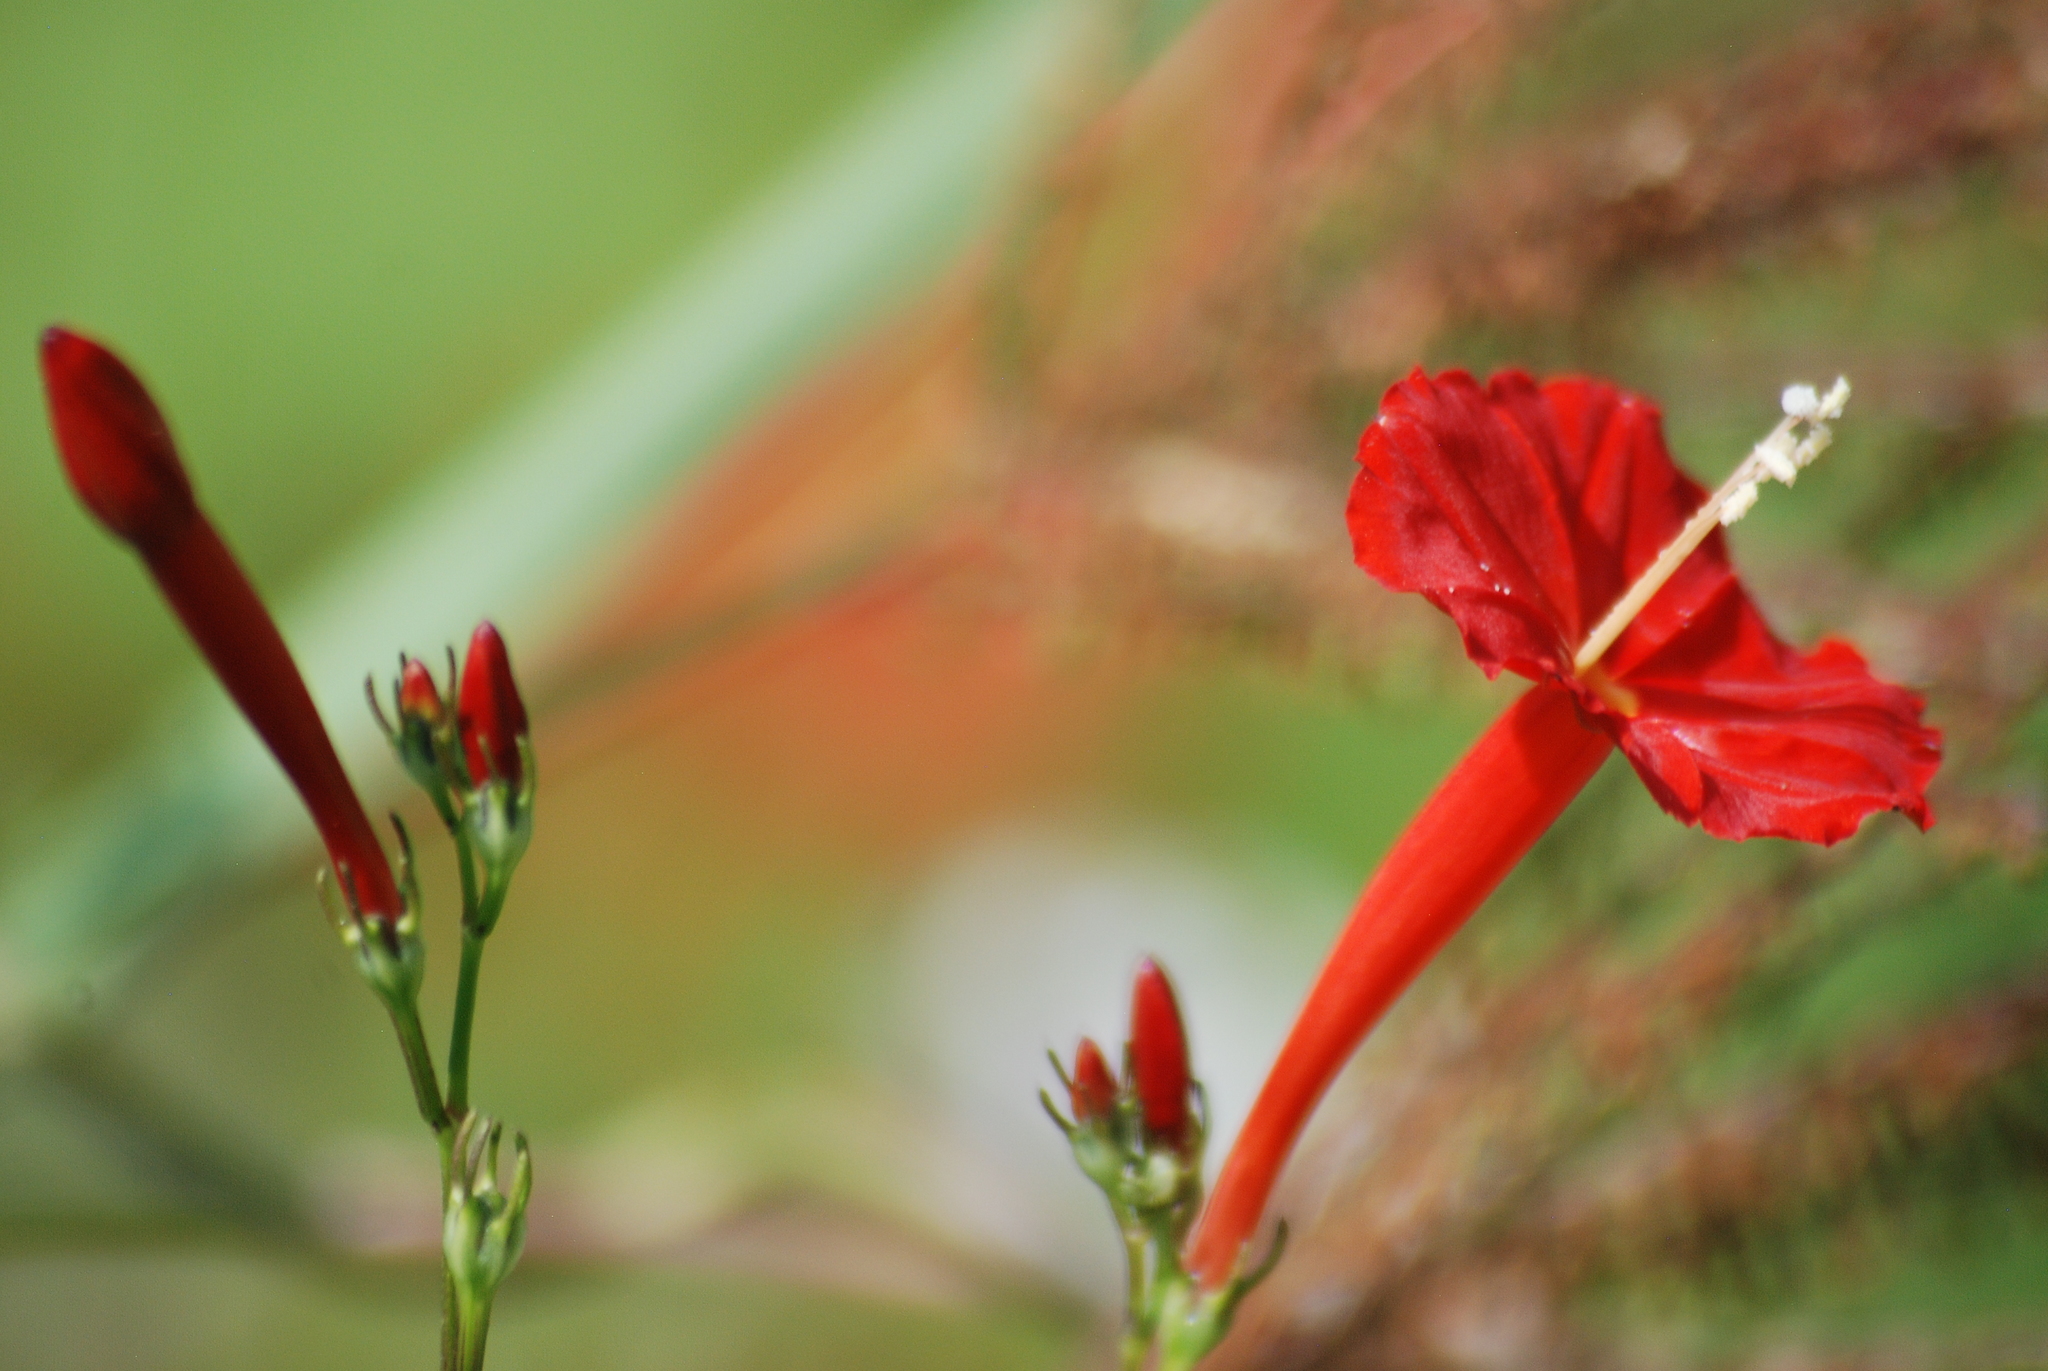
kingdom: Plantae
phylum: Tracheophyta
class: Magnoliopsida
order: Solanales
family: Convolvulaceae
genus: Ipomoea
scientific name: Ipomoea hederifolia
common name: Ivy-leaf morning-glory
